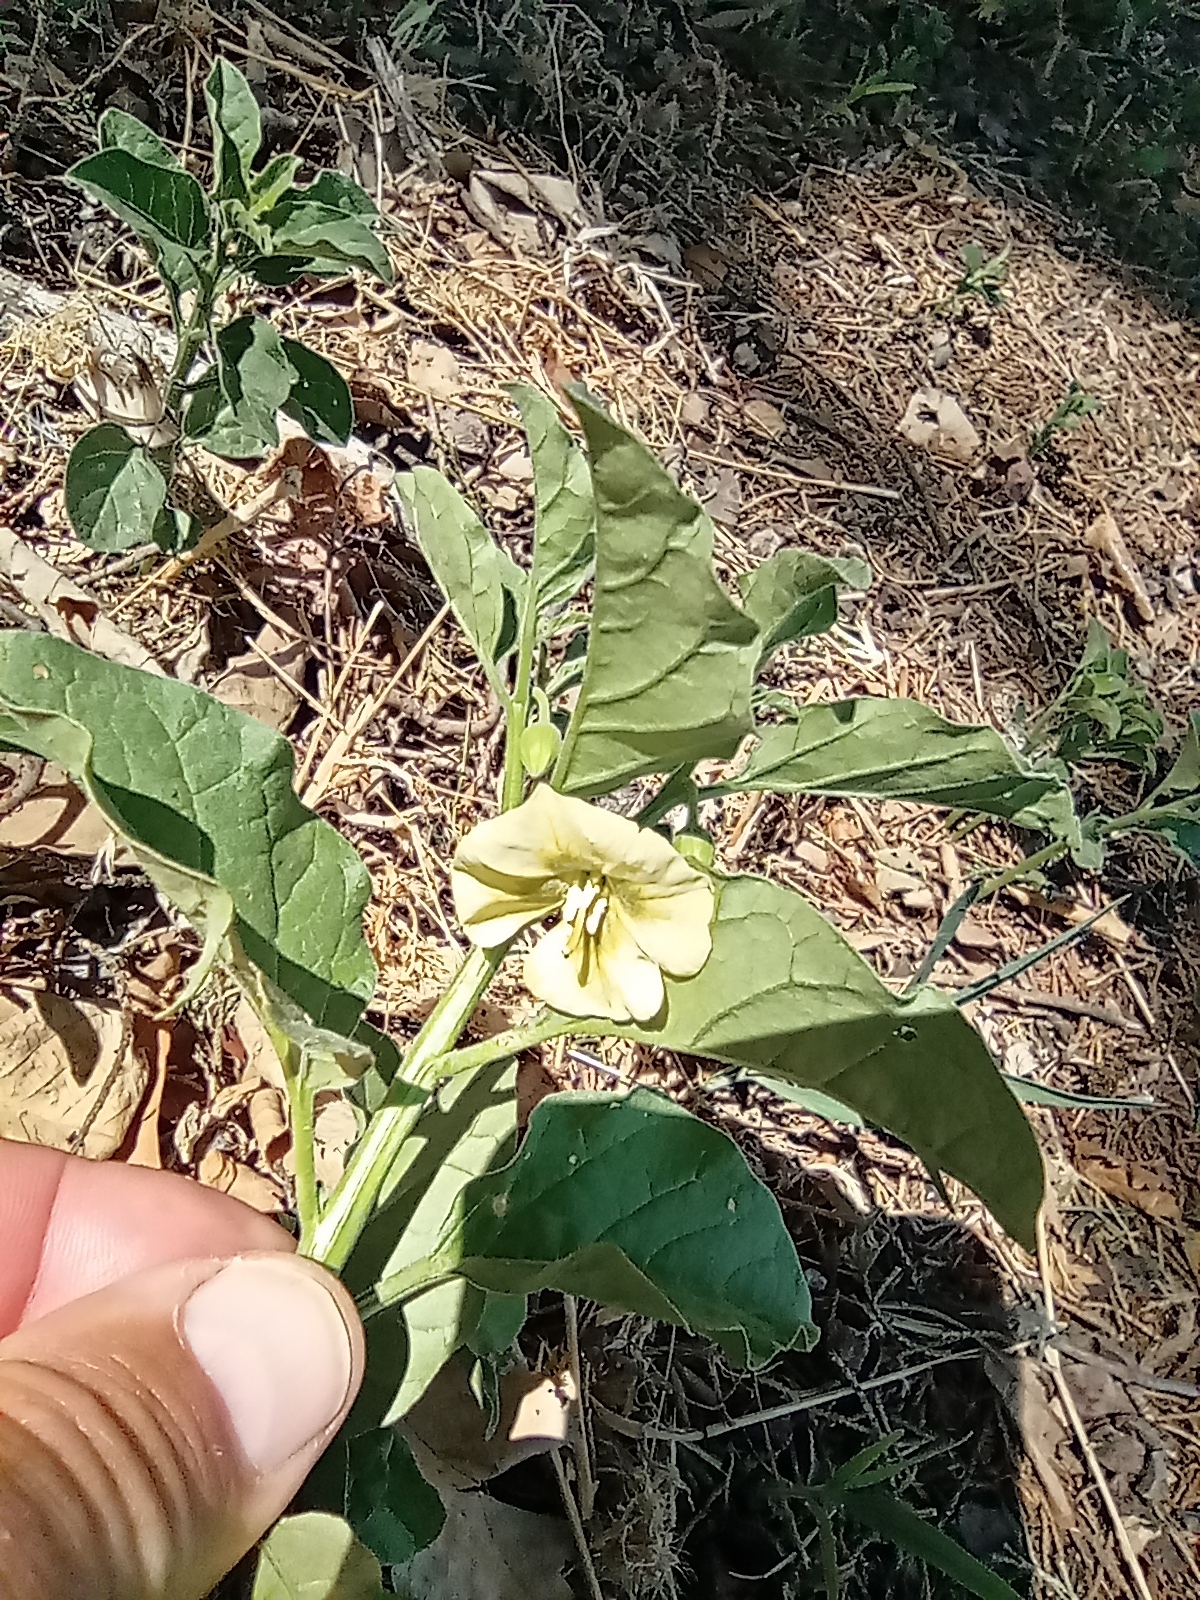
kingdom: Plantae
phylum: Tracheophyta
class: Magnoliopsida
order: Solanales
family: Solanaceae
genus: Physalis
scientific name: Physalis viscosa
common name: Stellate ground-cherry
